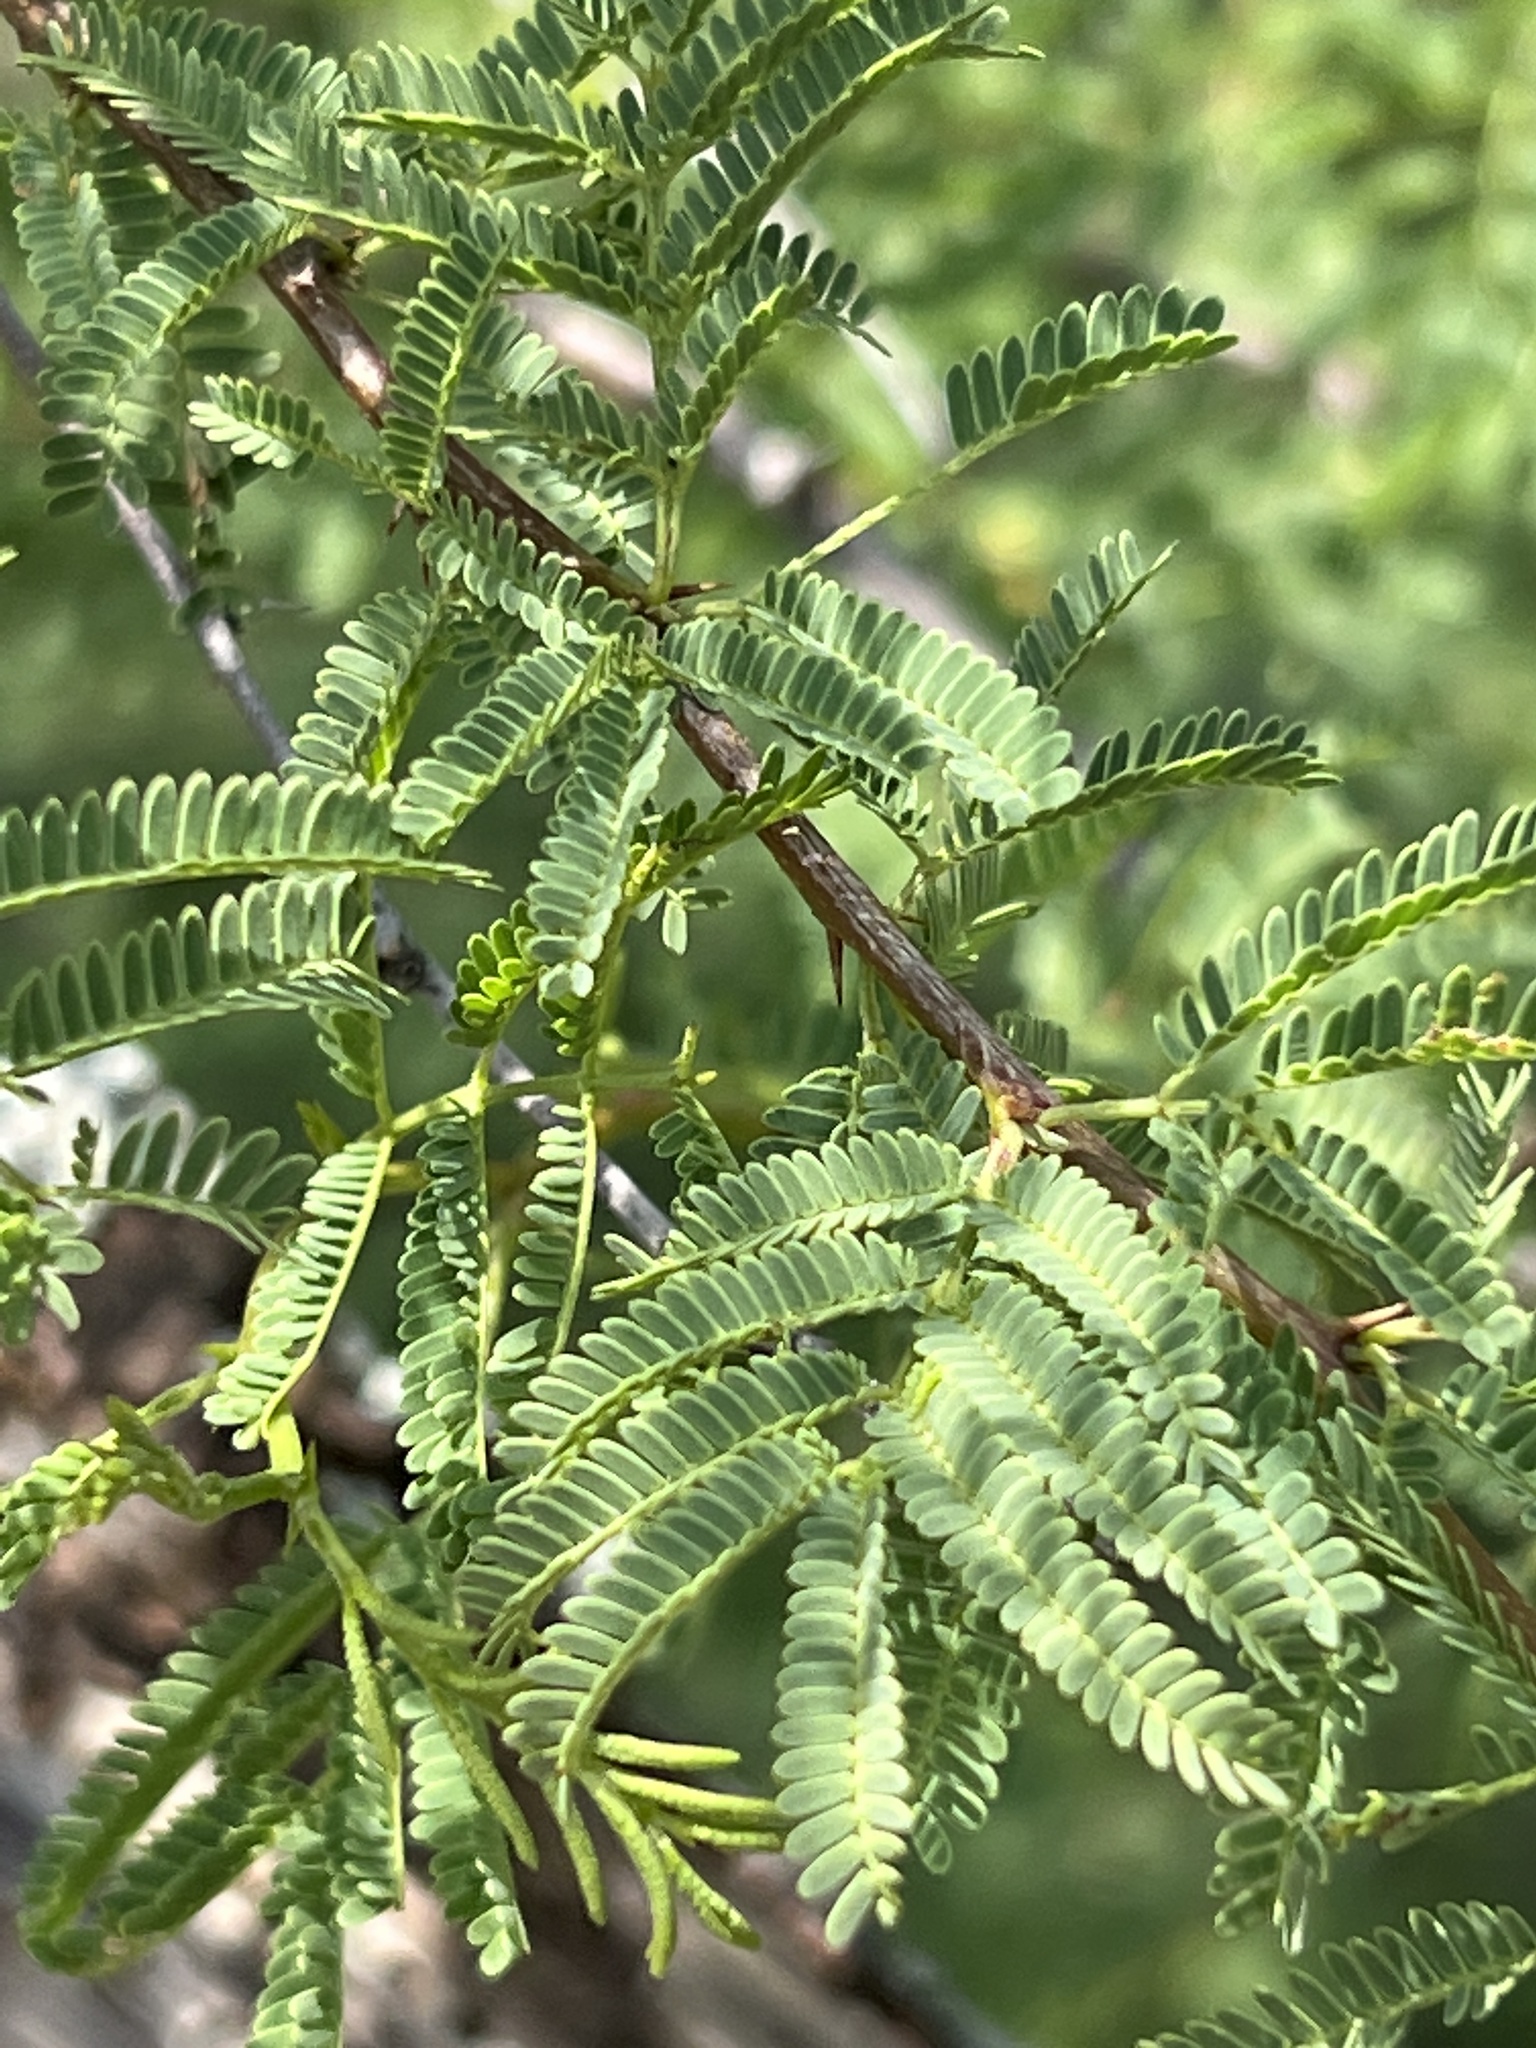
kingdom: Plantae
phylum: Tracheophyta
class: Magnoliopsida
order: Fabales
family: Fabaceae
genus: Vachellia
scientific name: Vachellia farnesiana
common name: Sweet acacia
